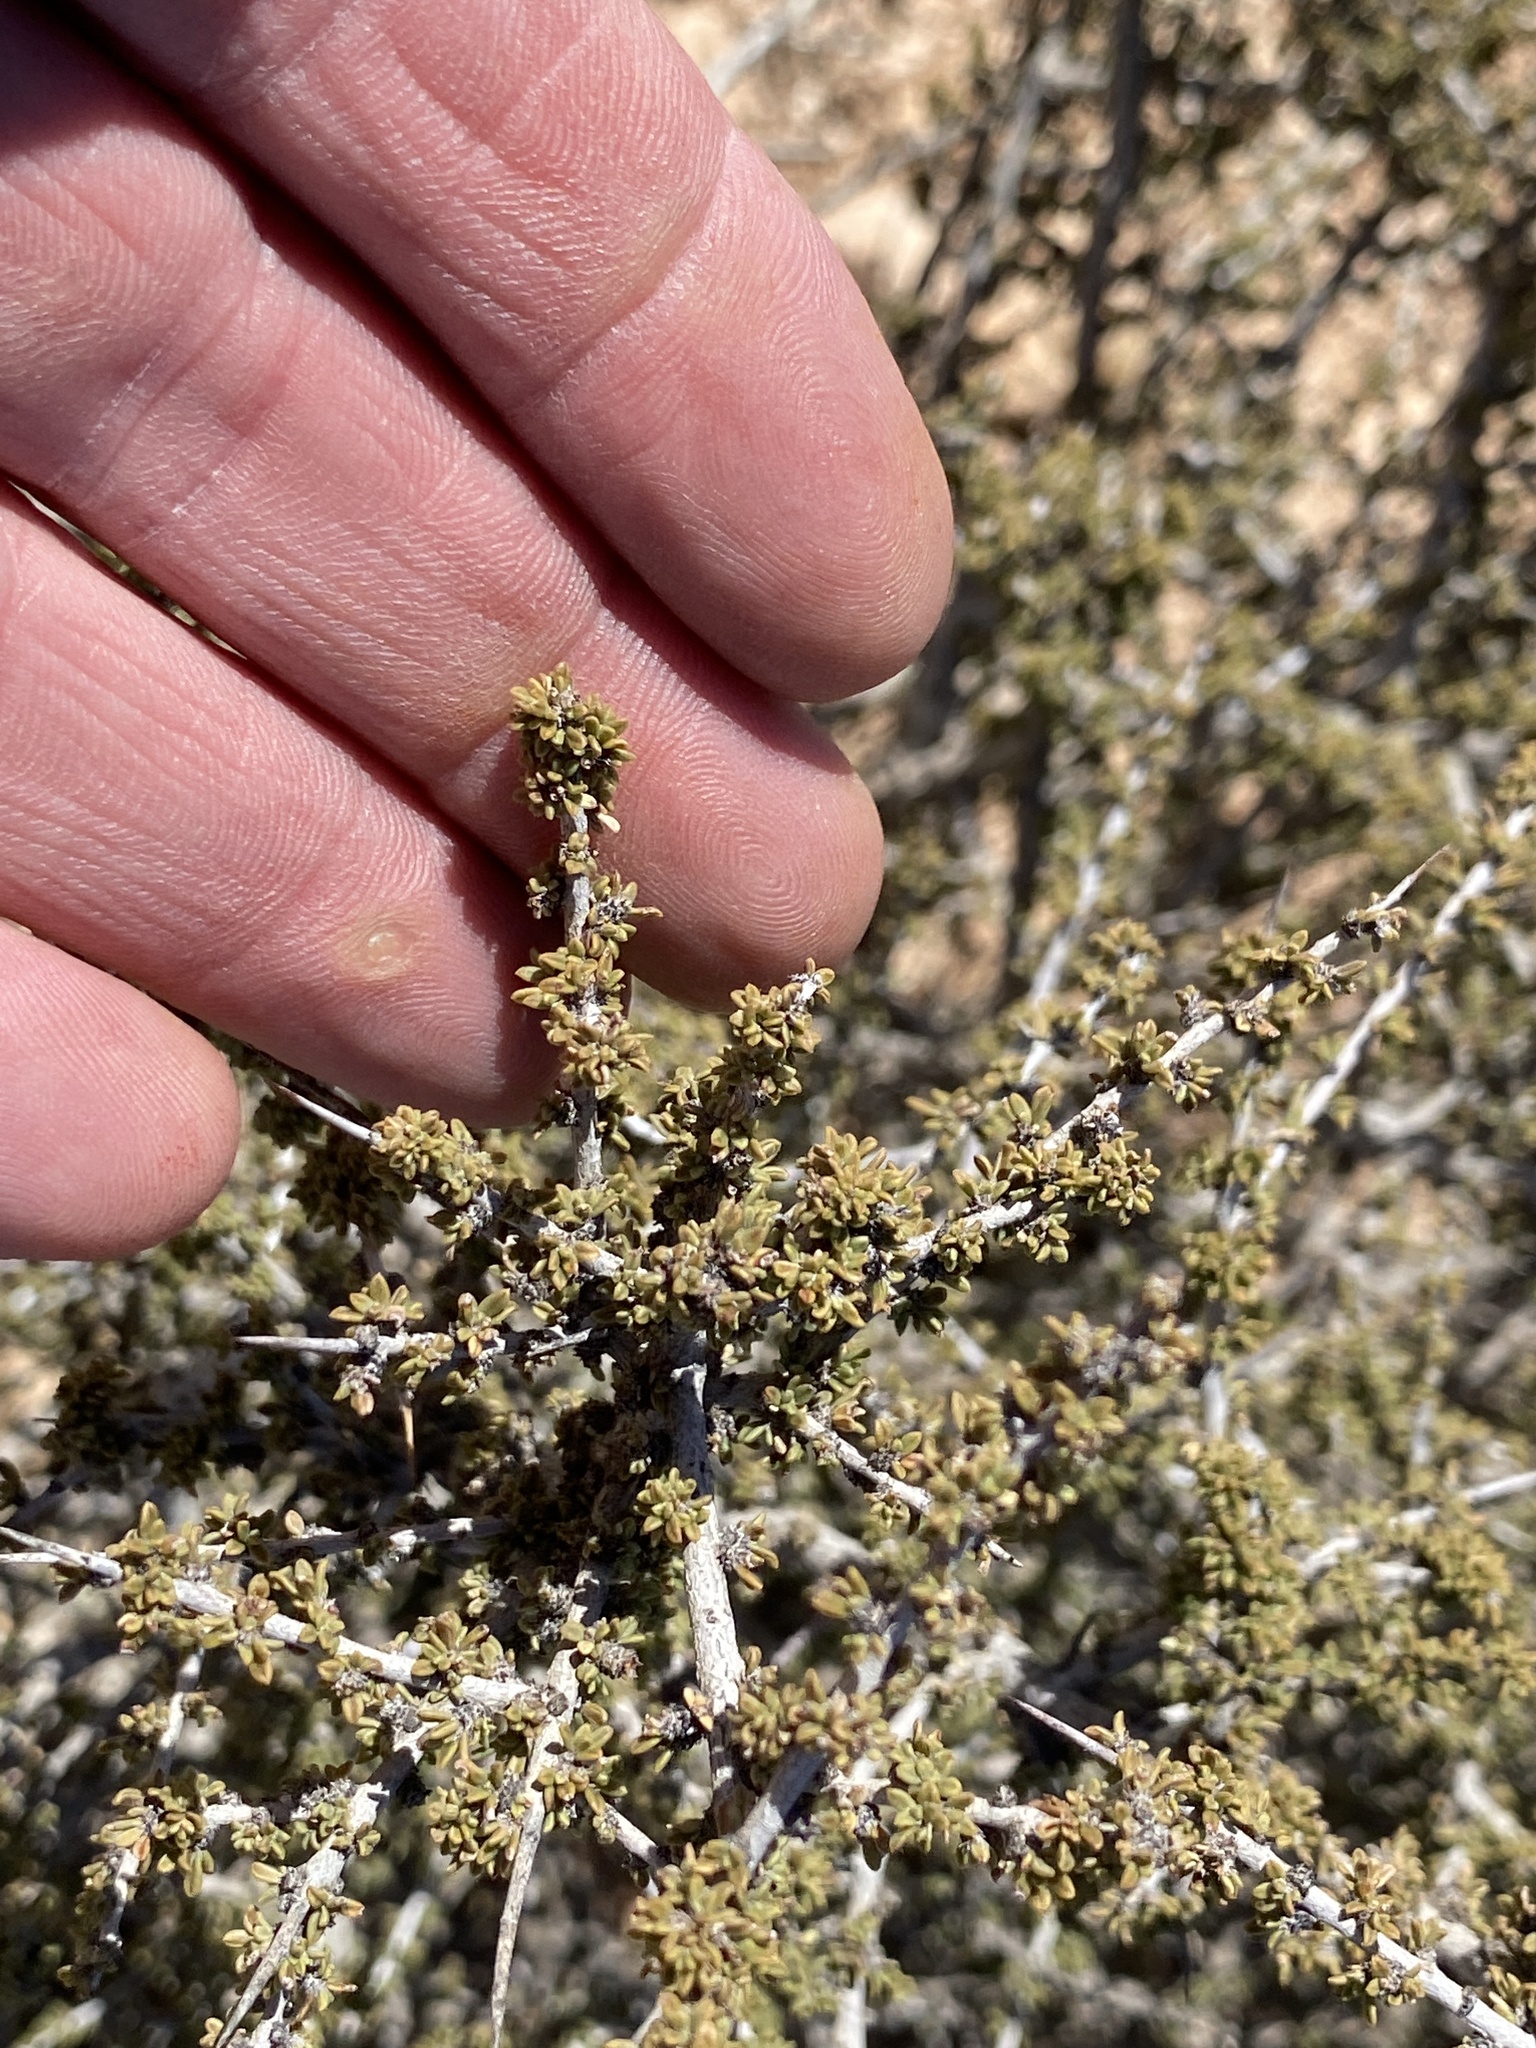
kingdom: Plantae
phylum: Tracheophyta
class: Magnoliopsida
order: Rosales
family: Rhamnaceae
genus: Condalia
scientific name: Condalia ericoides
